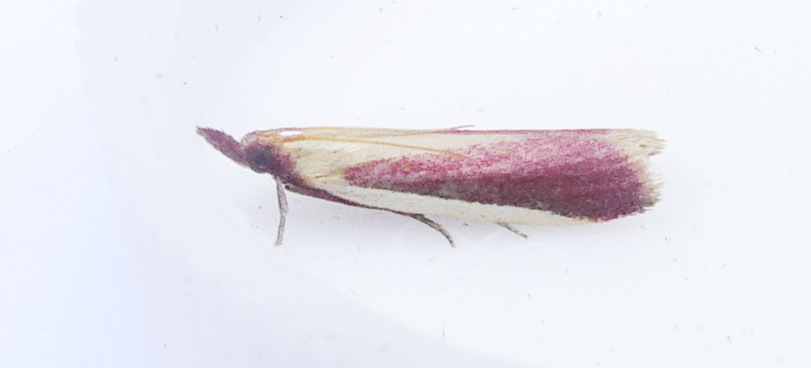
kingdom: Animalia
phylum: Arthropoda
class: Insecta
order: Lepidoptera
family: Pyralidae
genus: Peoria
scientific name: Peoria approximella
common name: Carmine snout
